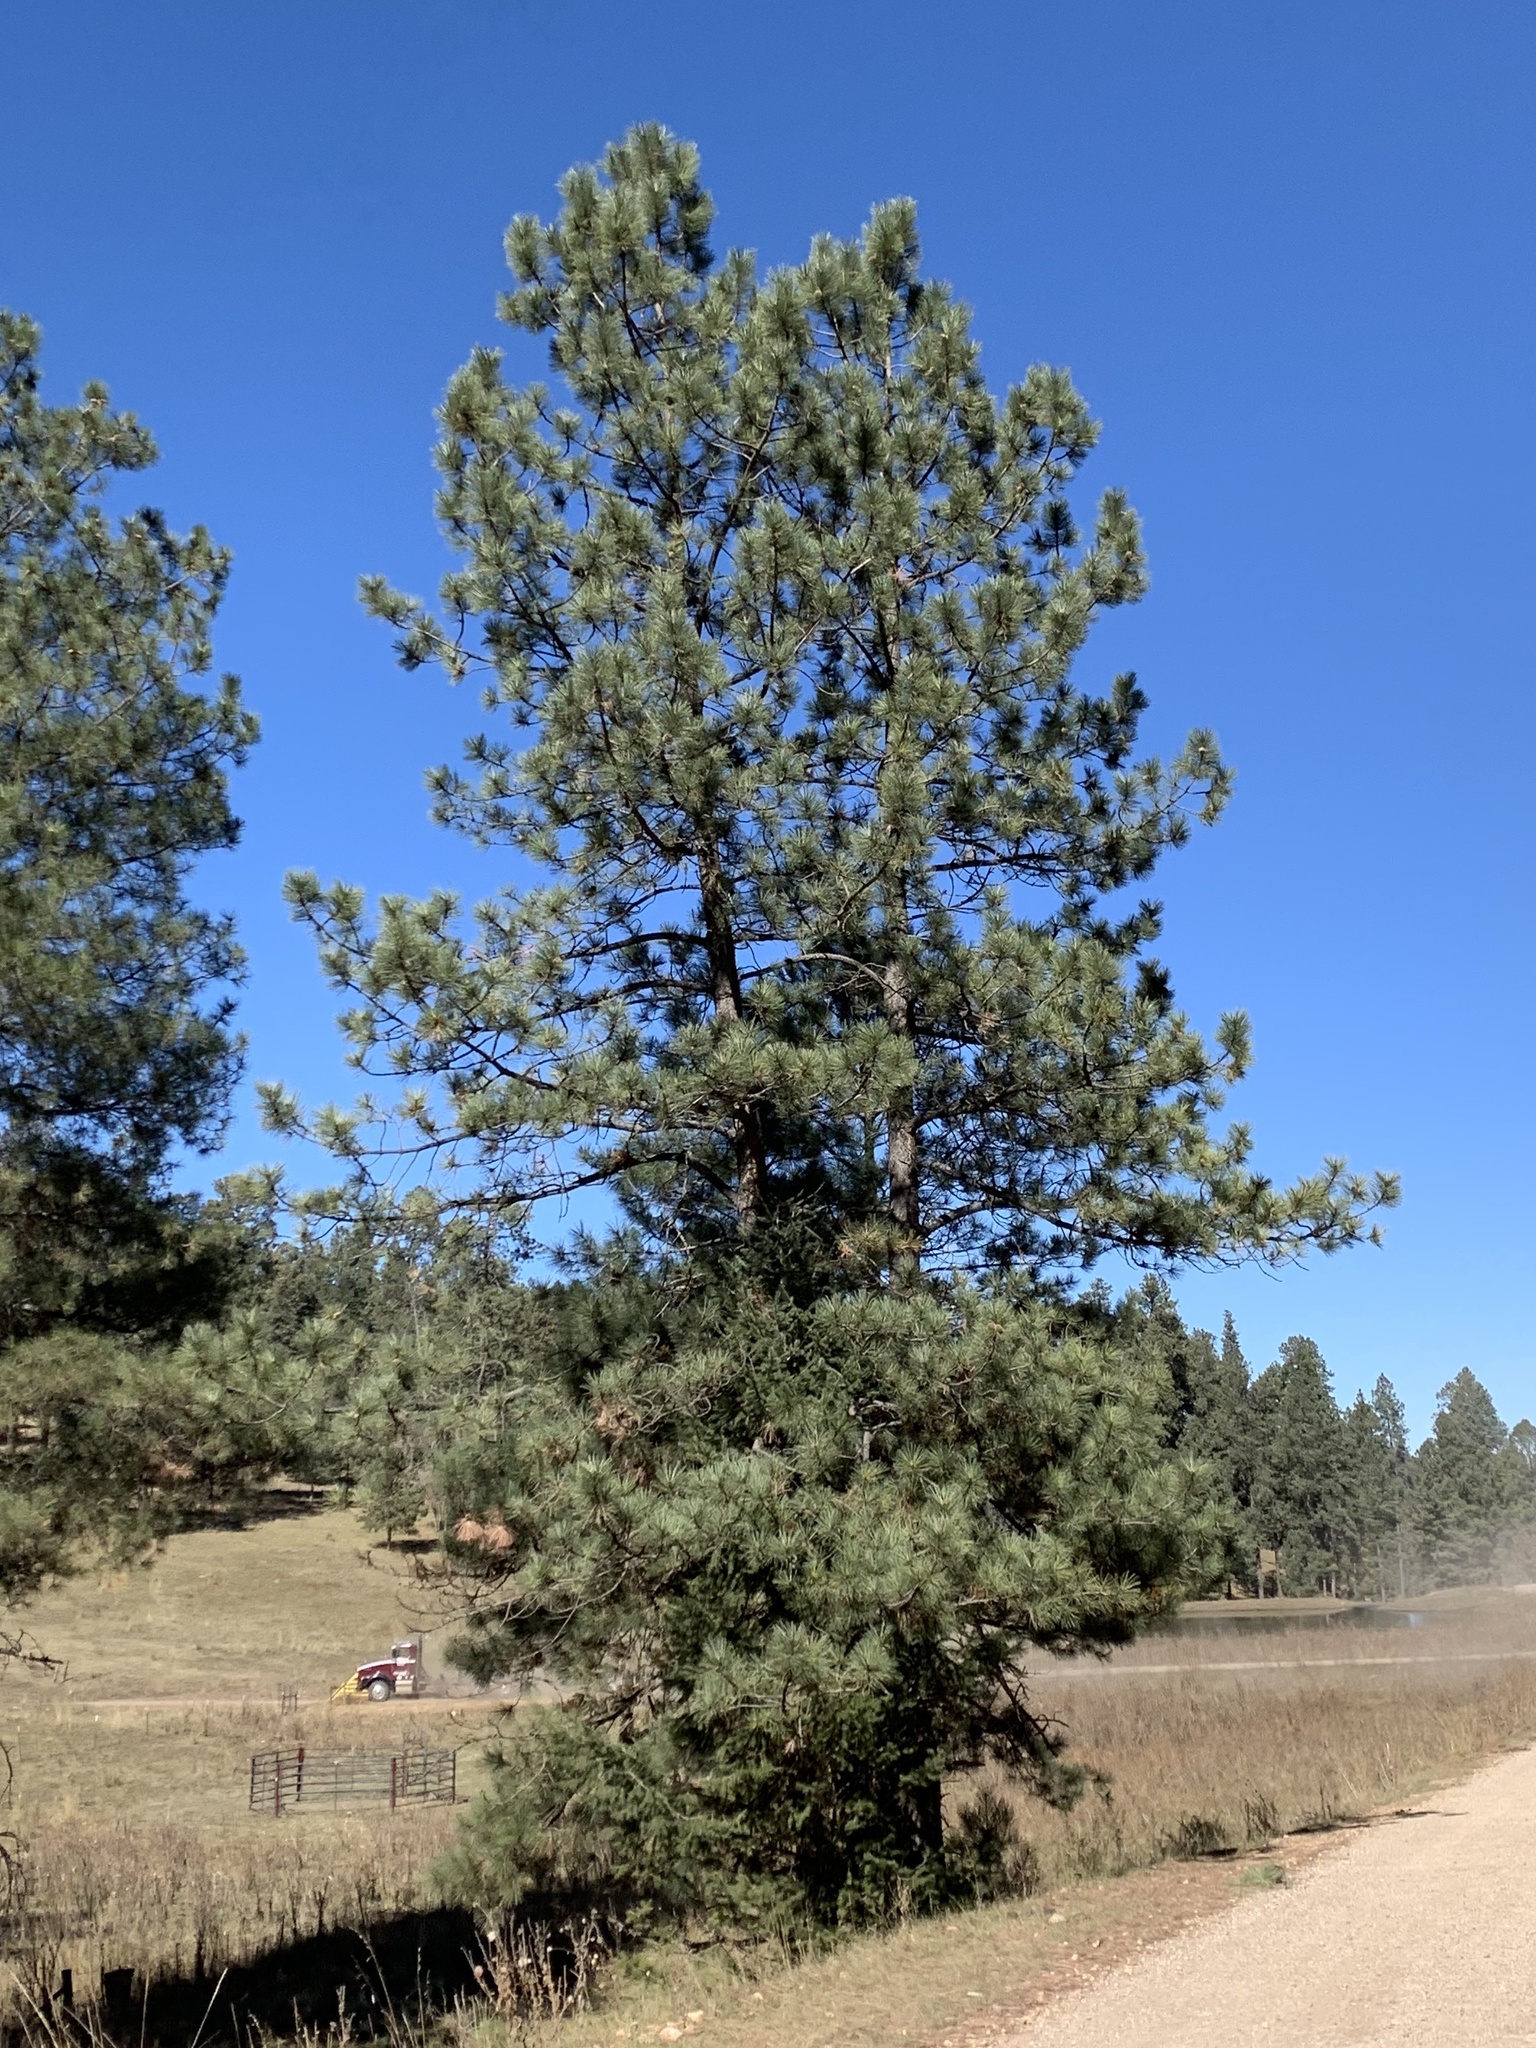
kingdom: Plantae
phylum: Tracheophyta
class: Pinopsida
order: Pinales
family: Pinaceae
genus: Pinus
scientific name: Pinus ponderosa
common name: Western yellow-pine
